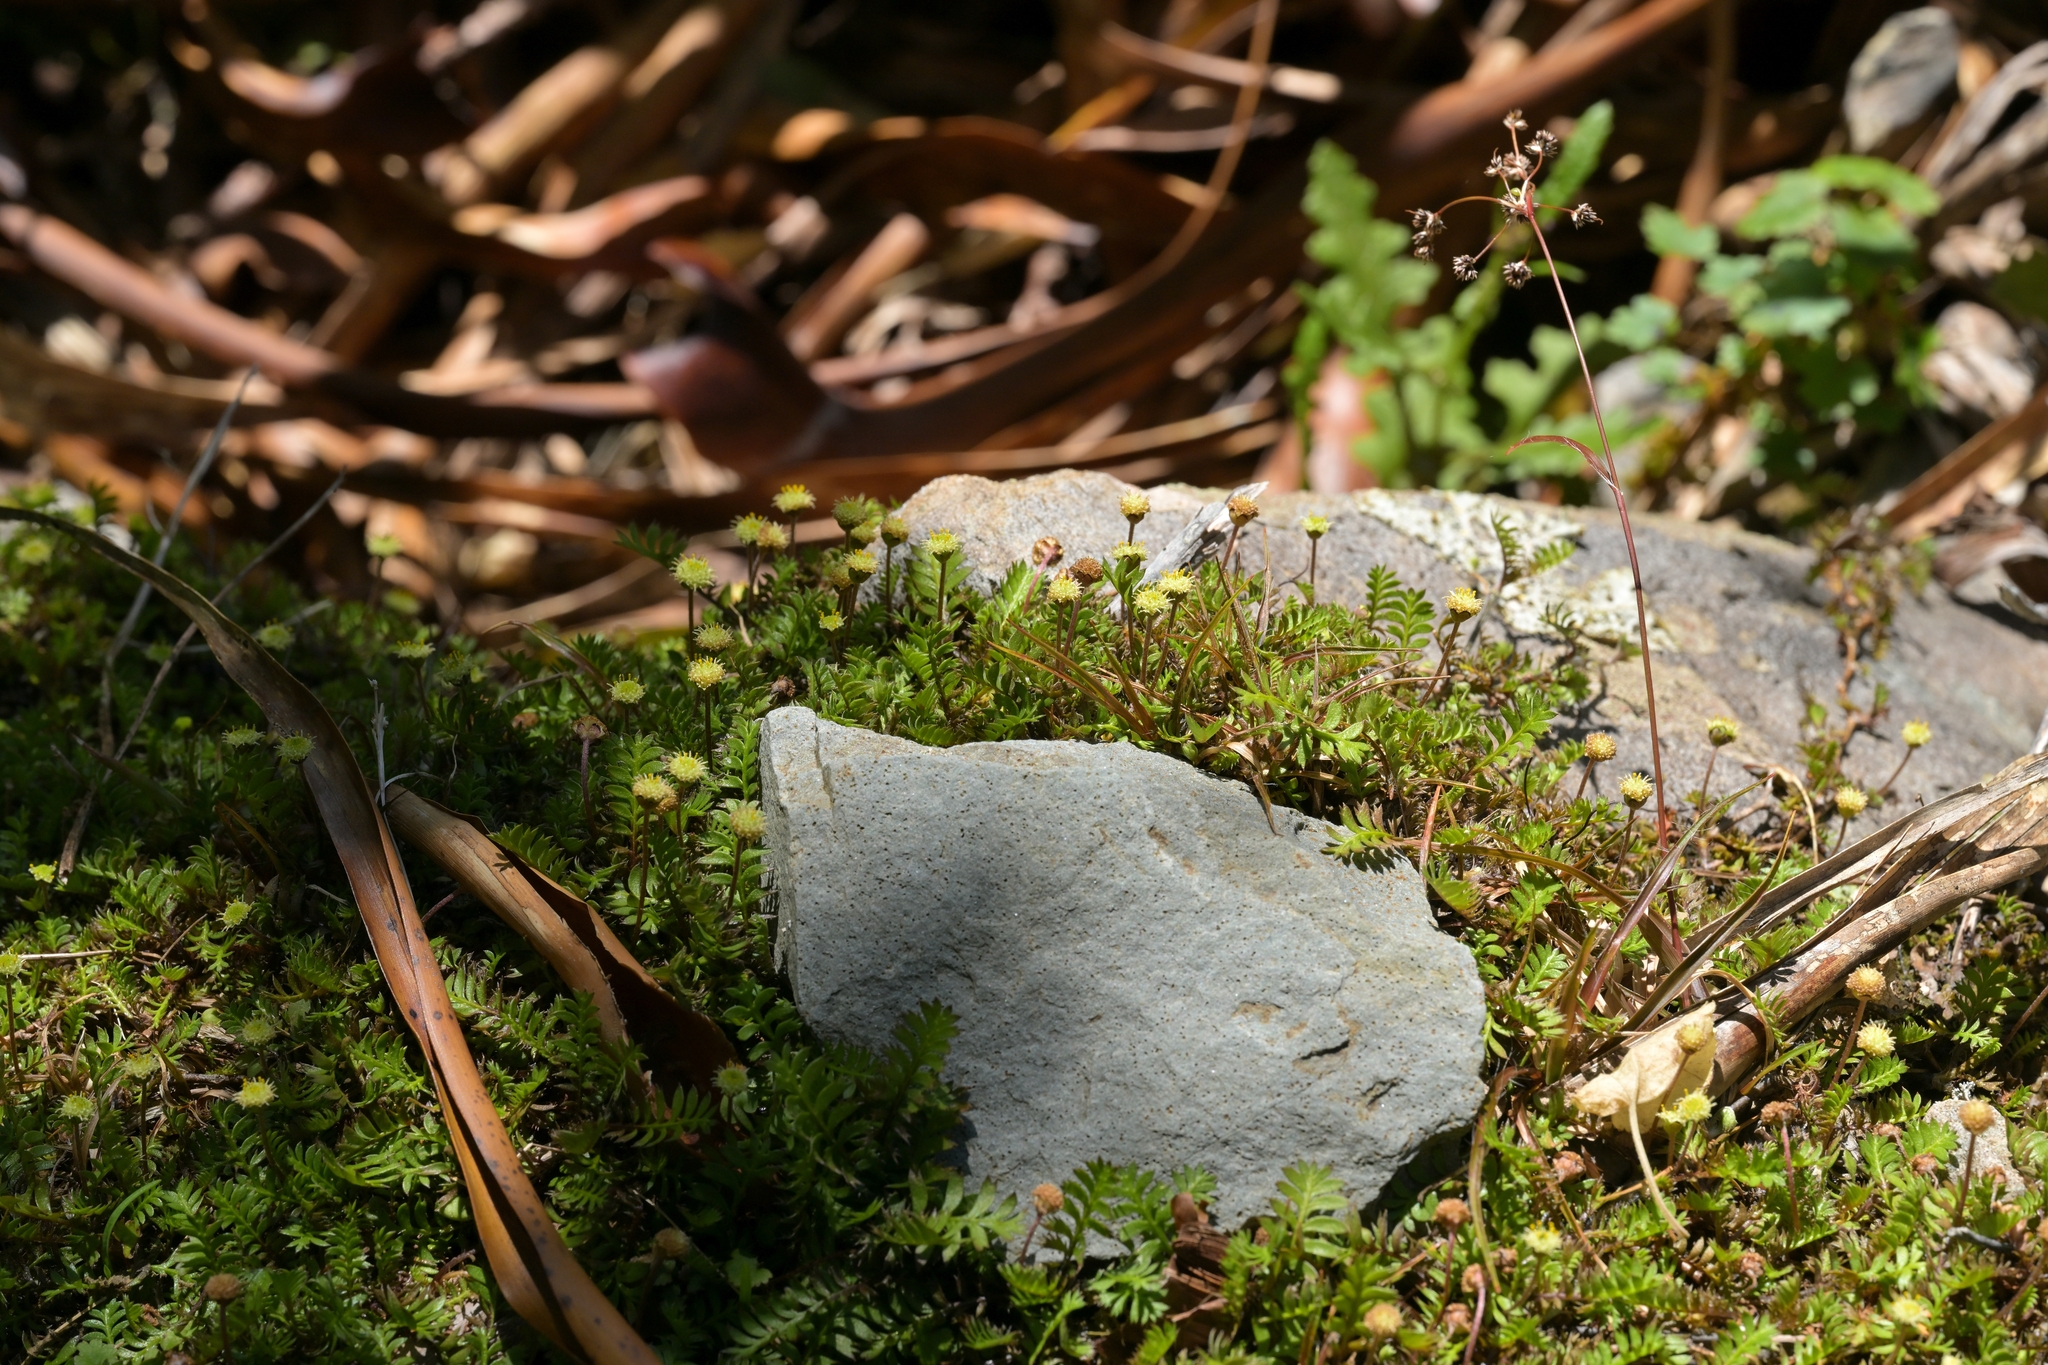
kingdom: Plantae
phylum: Tracheophyta
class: Magnoliopsida
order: Asterales
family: Asteraceae
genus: Leptinella
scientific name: Leptinella squalida
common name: New zealand brass-buttons
